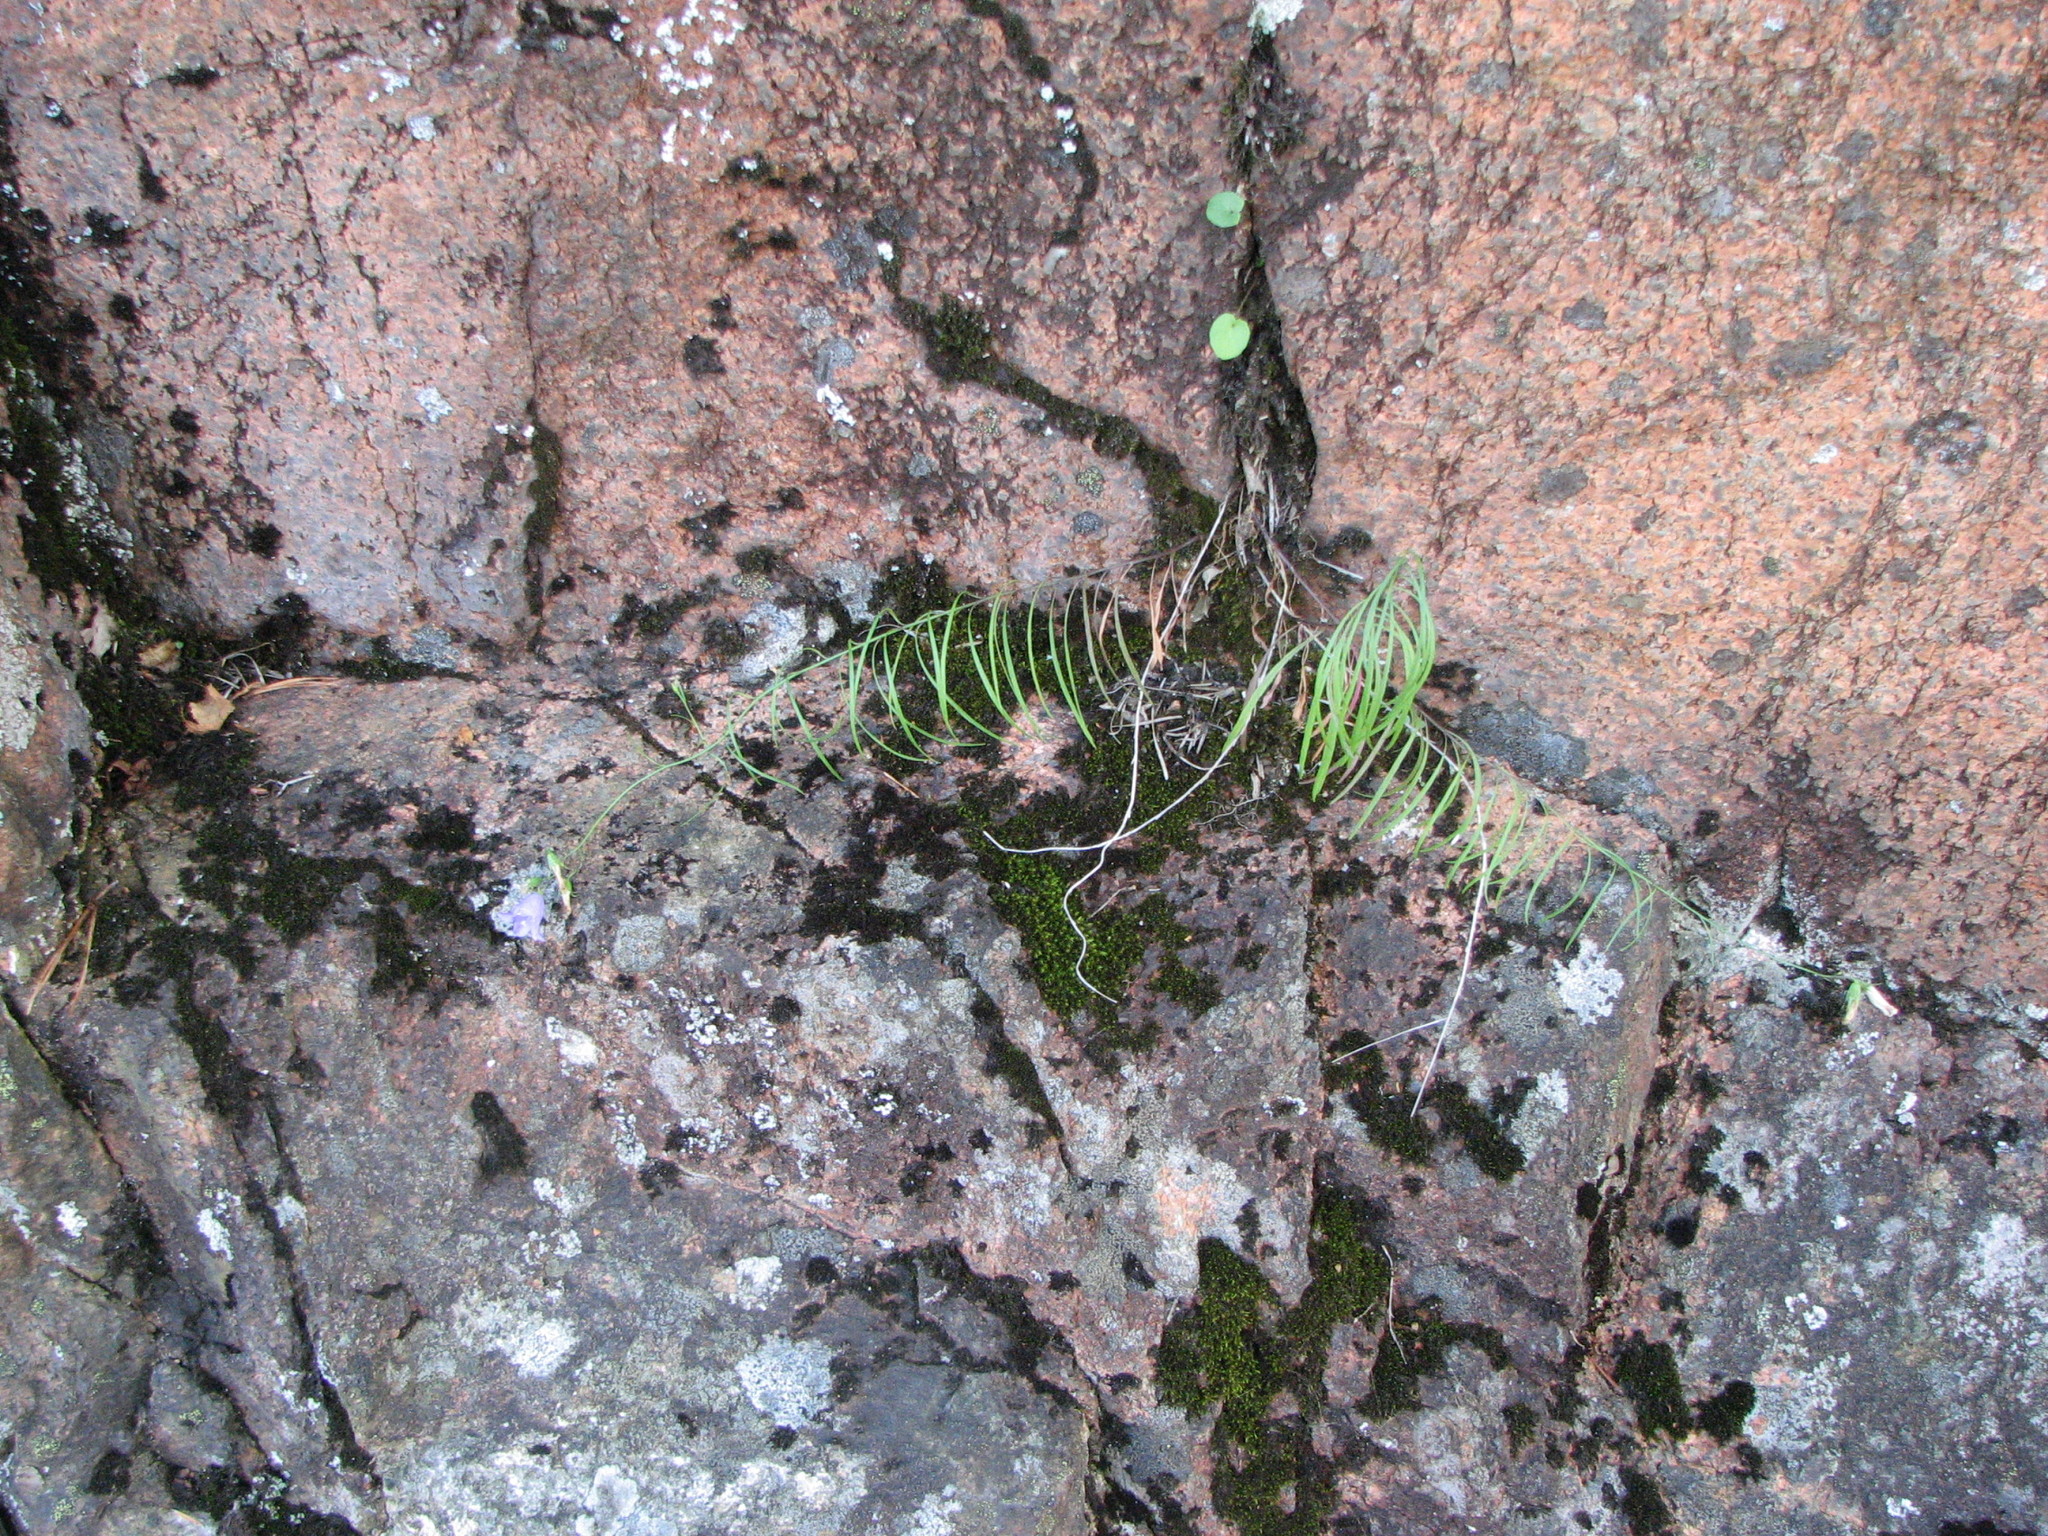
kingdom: Plantae
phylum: Tracheophyta
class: Magnoliopsida
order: Brassicales
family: Brassicaceae
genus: Borodinia
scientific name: Borodinia laevigata
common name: Smooth rockcress
